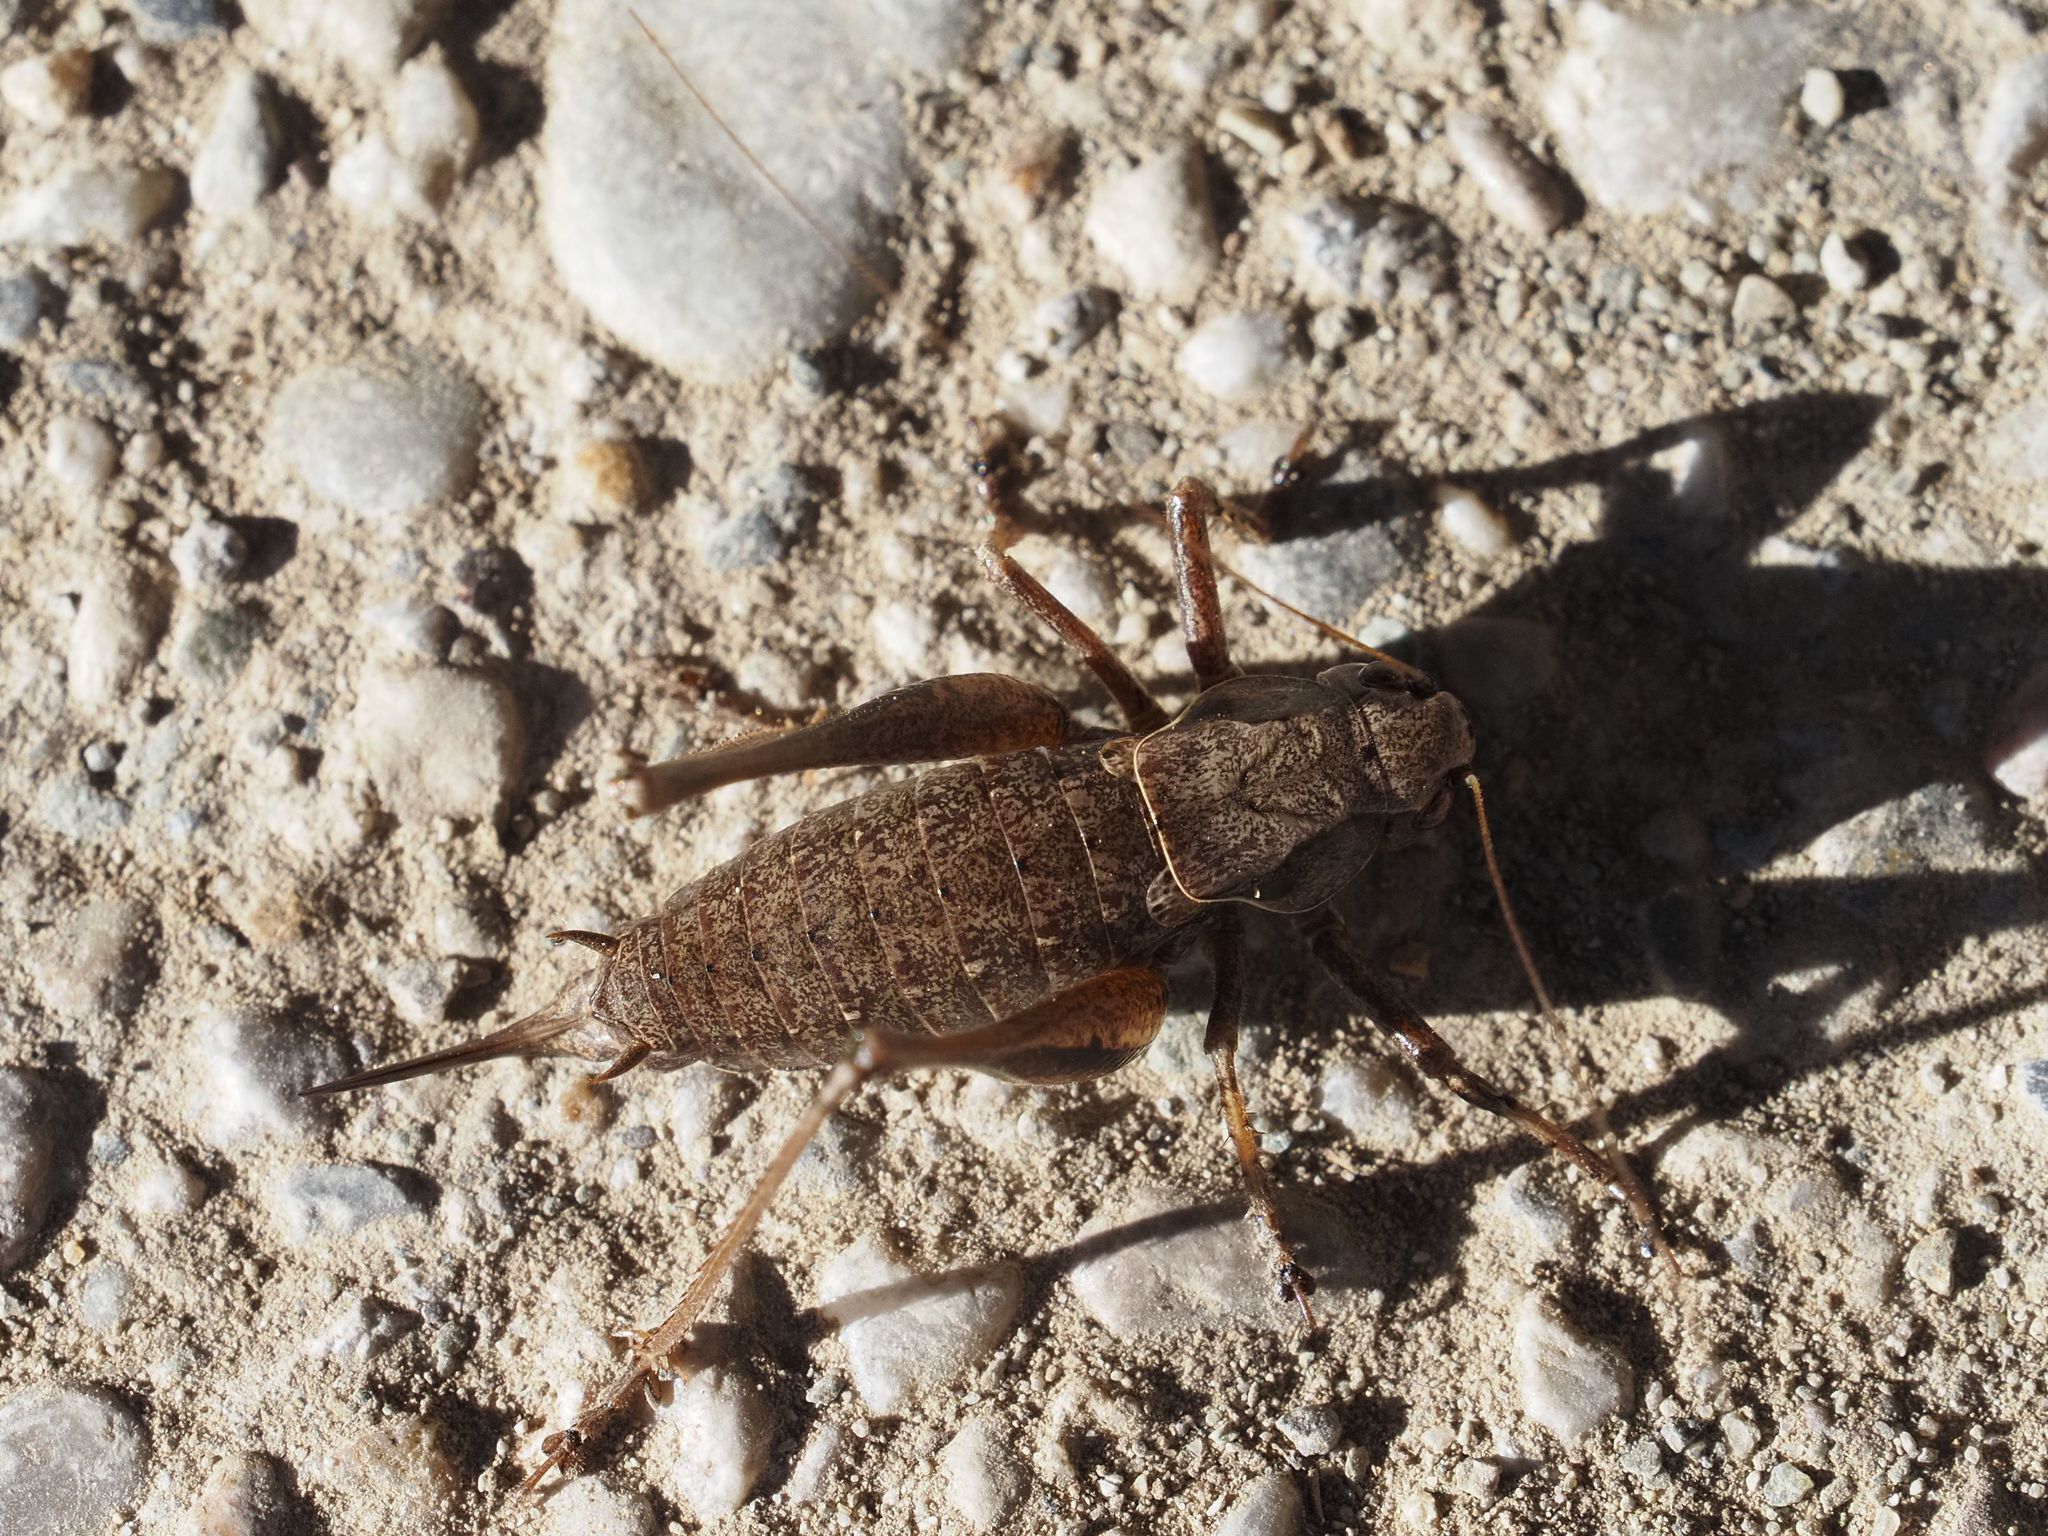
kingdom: Animalia
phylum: Arthropoda
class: Insecta
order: Orthoptera
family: Tettigoniidae
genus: Pholidoptera
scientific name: Pholidoptera griseoaptera
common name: Dark bush-cricket
